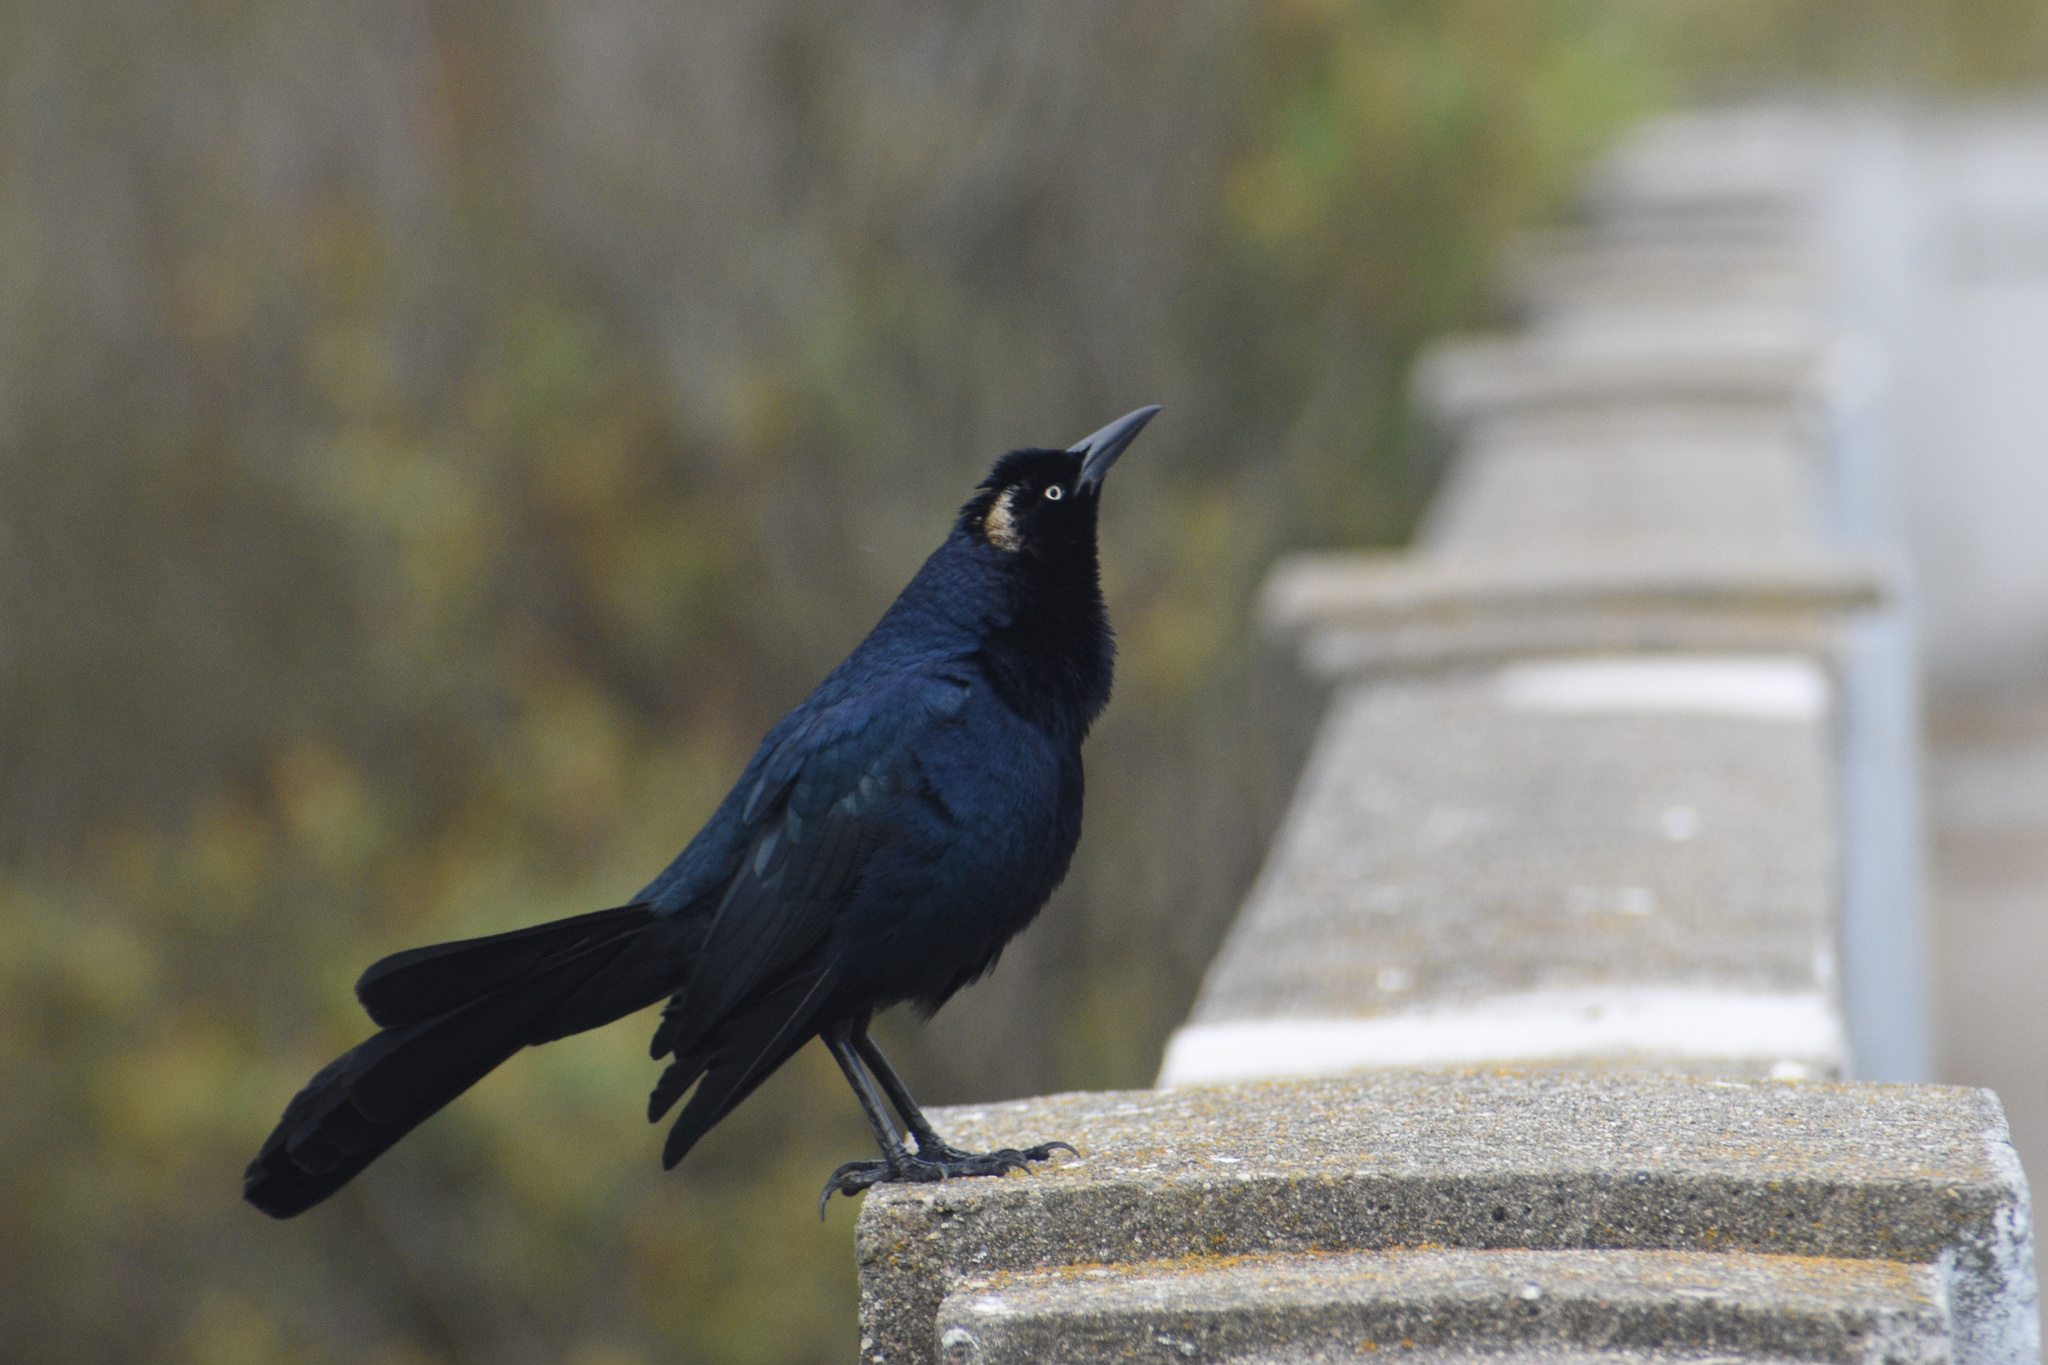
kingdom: Animalia
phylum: Chordata
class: Aves
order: Passeriformes
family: Icteridae
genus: Quiscalus
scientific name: Quiscalus mexicanus
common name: Great-tailed grackle
